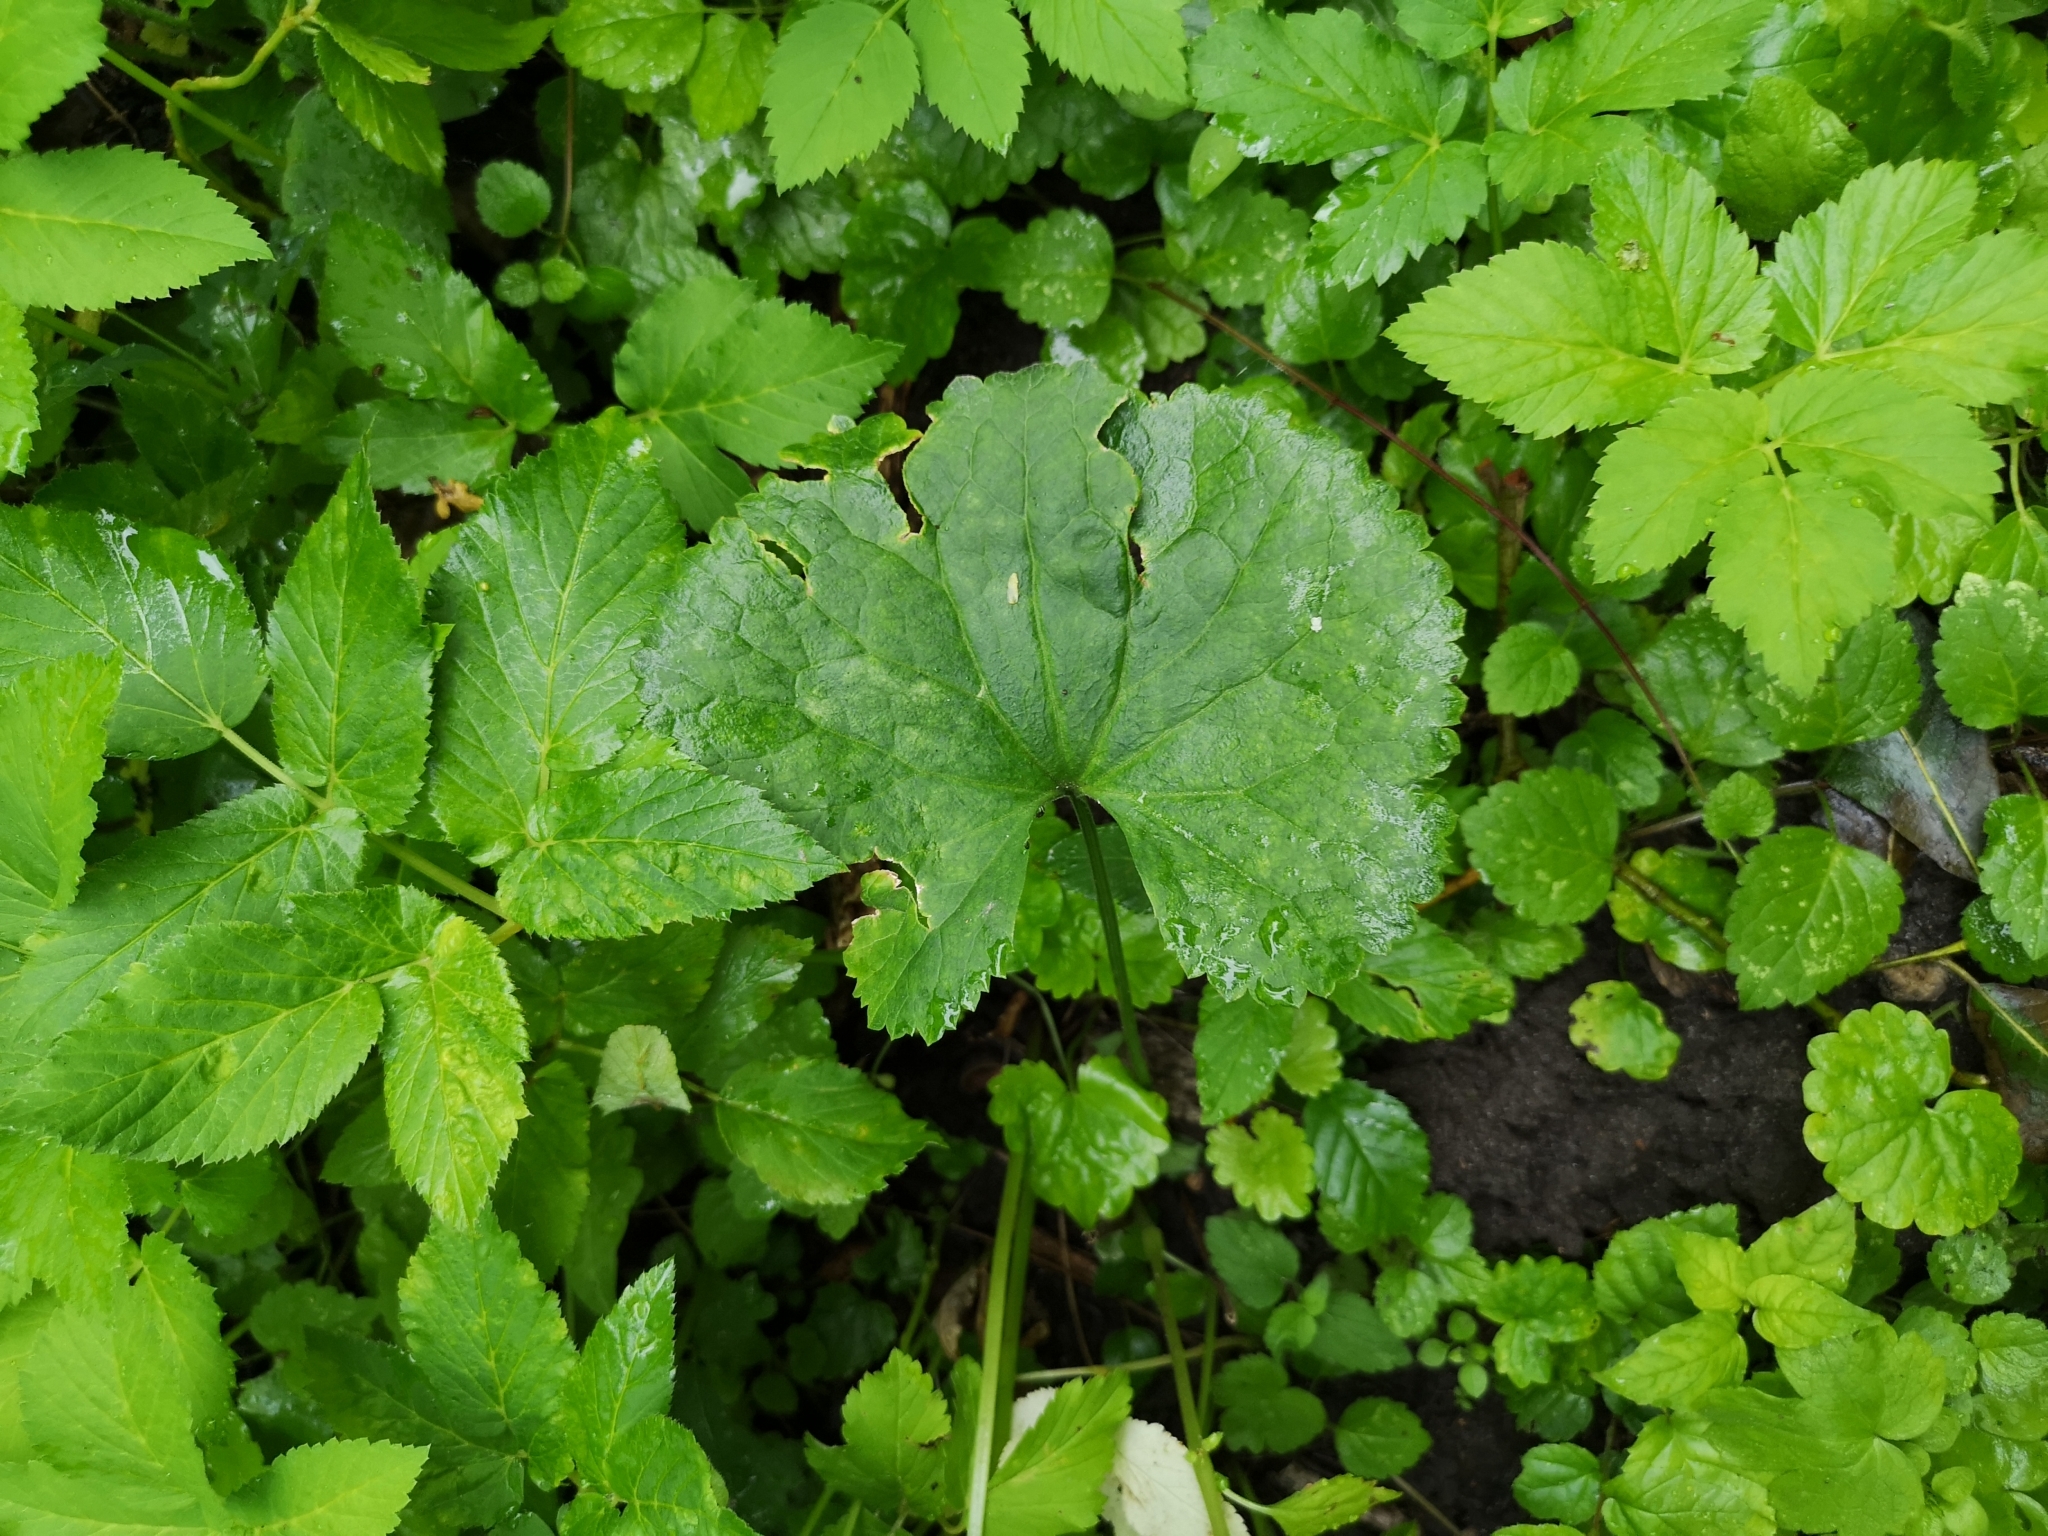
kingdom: Plantae
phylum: Tracheophyta
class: Magnoliopsida
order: Ranunculales
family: Ranunculaceae
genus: Ranunculus
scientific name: Ranunculus cassubicus
